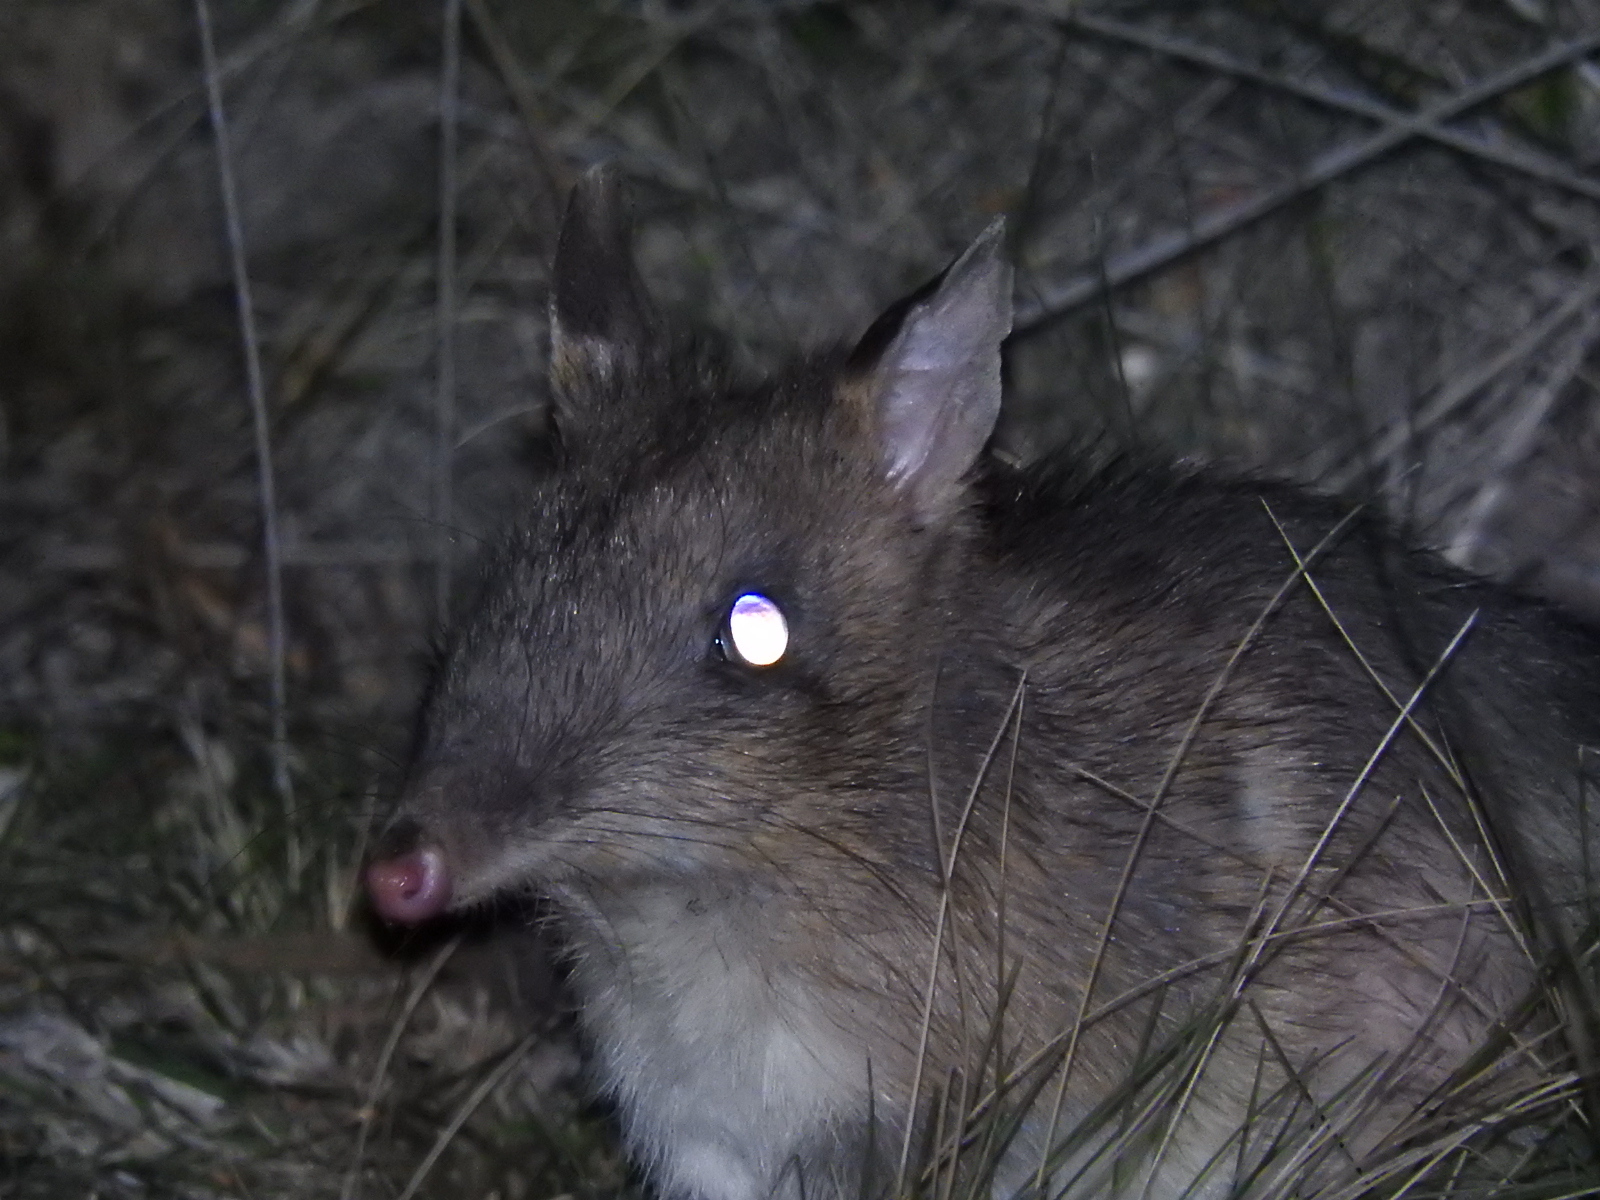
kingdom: Animalia
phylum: Chordata
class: Mammalia
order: Peramelemorphia
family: Peramelidae
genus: Perameles
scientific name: Perameles gunnii
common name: Eastern barred bandicoot
